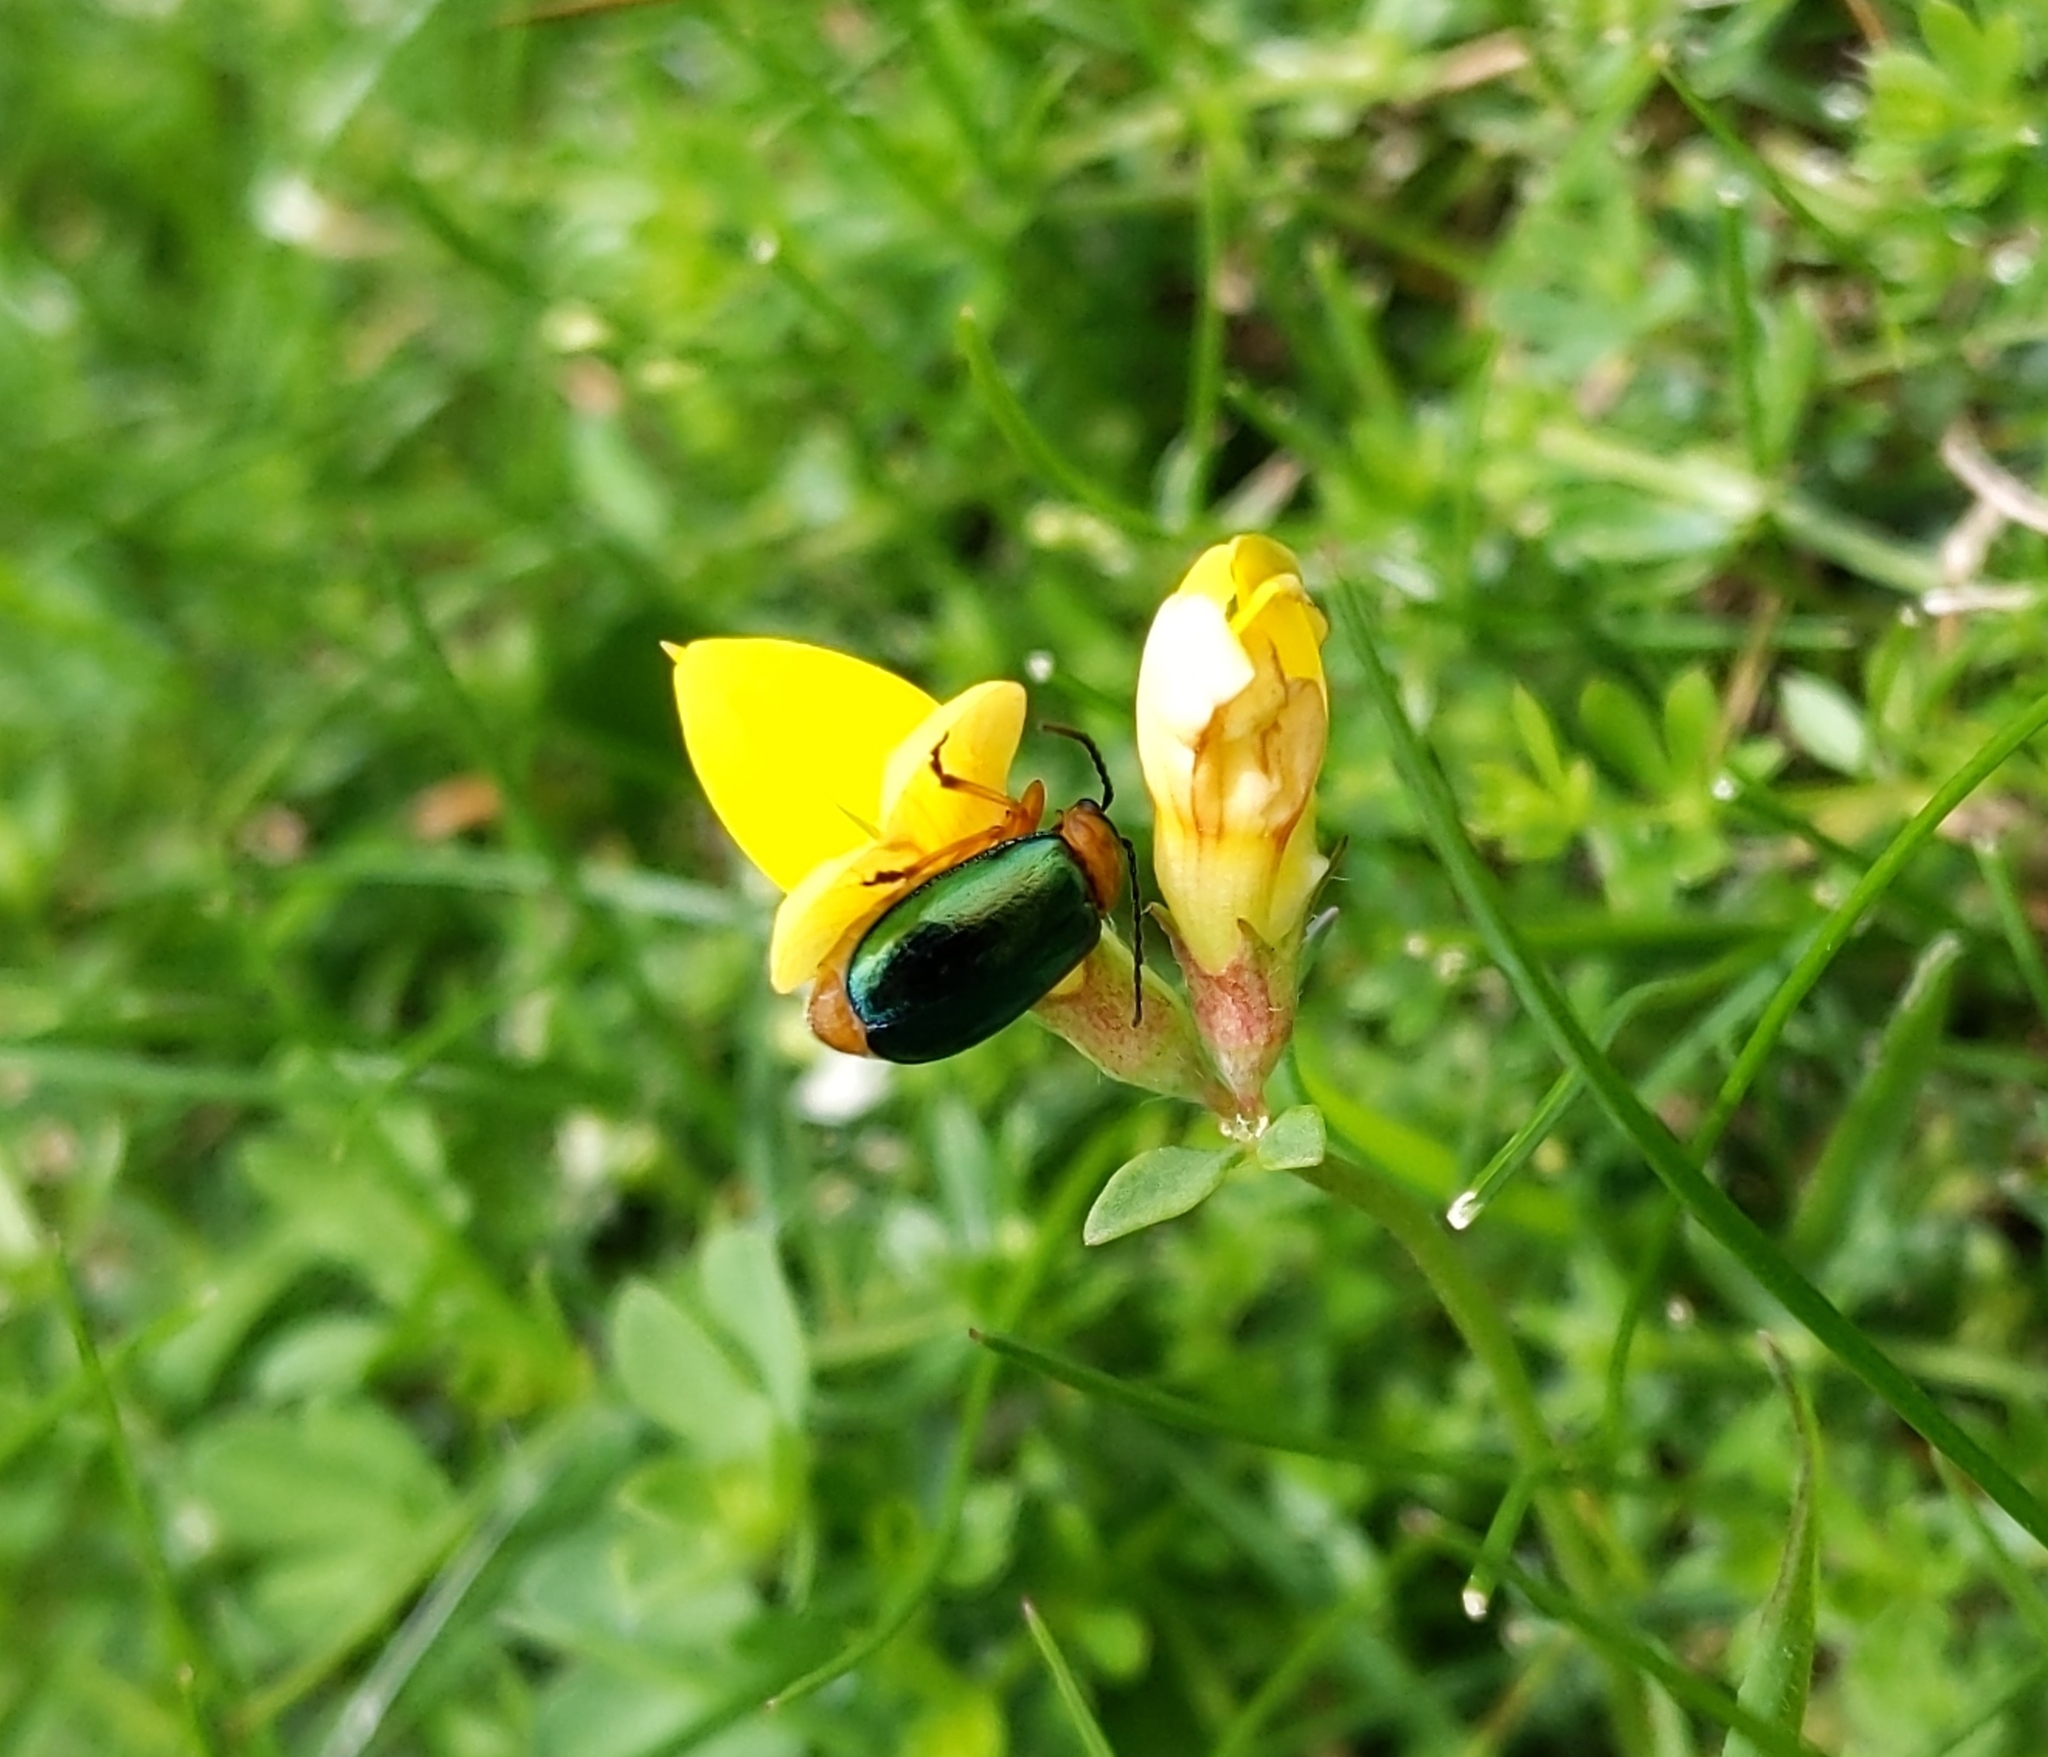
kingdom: Animalia
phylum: Arthropoda
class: Insecta
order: Coleoptera
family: Chrysomelidae
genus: Sermylassa
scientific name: Sermylassa halensis
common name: Leaf beetle
